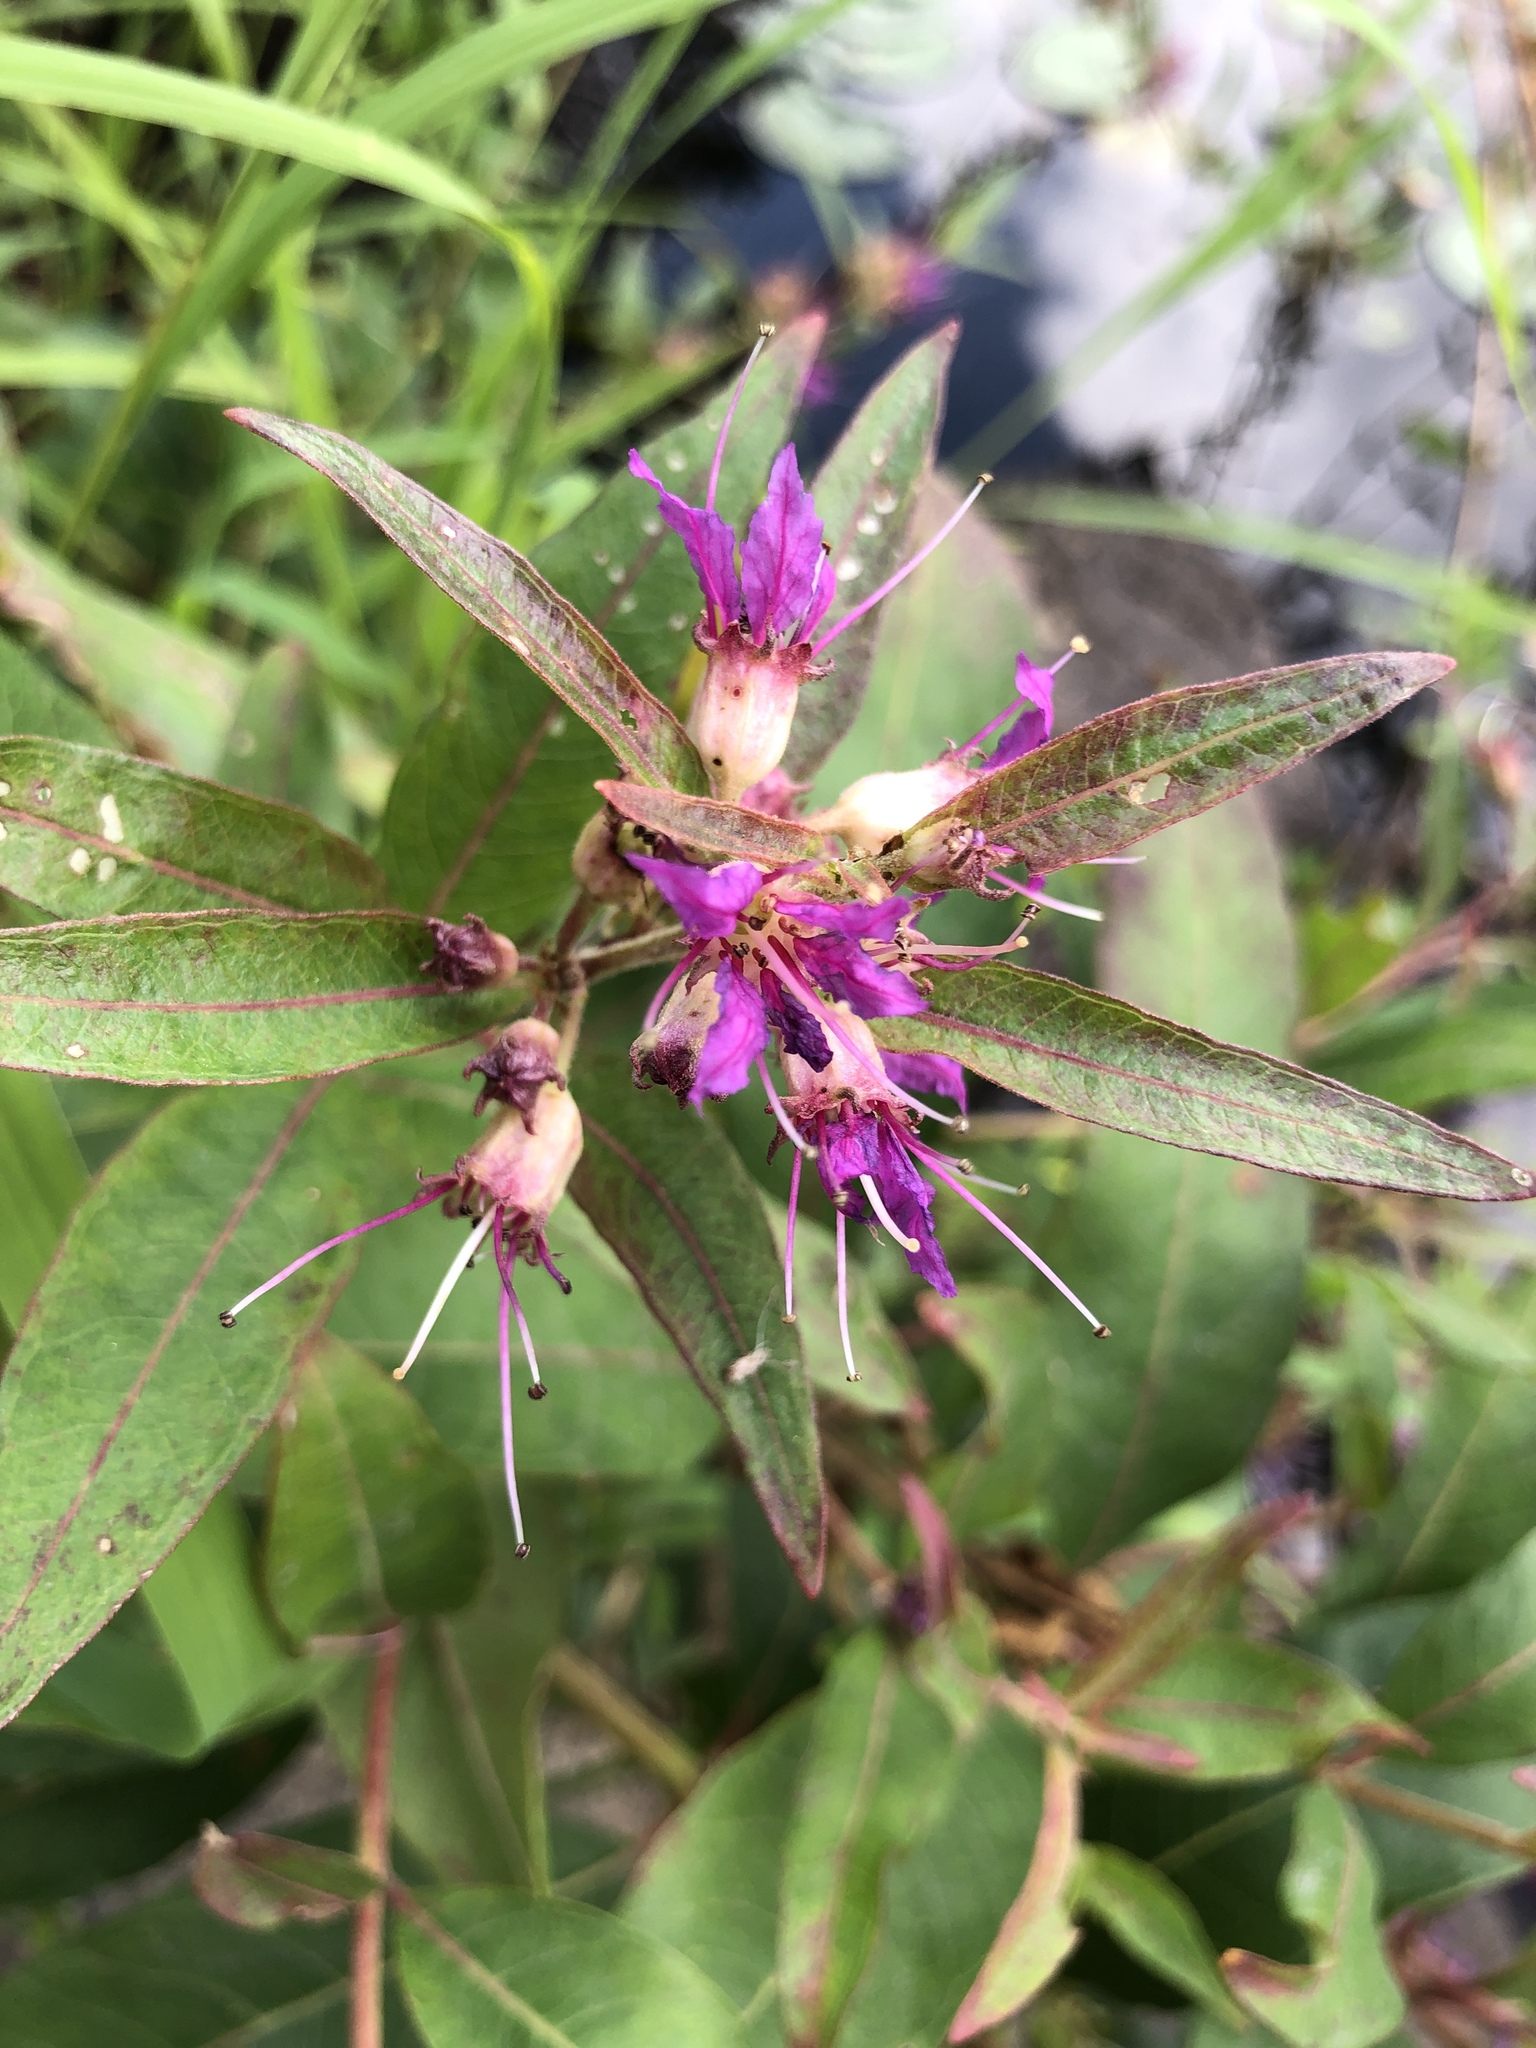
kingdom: Plantae
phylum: Tracheophyta
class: Magnoliopsida
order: Myrtales
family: Lythraceae
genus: Decodon
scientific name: Decodon verticillatus
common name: Hairy swamp loosestrife
